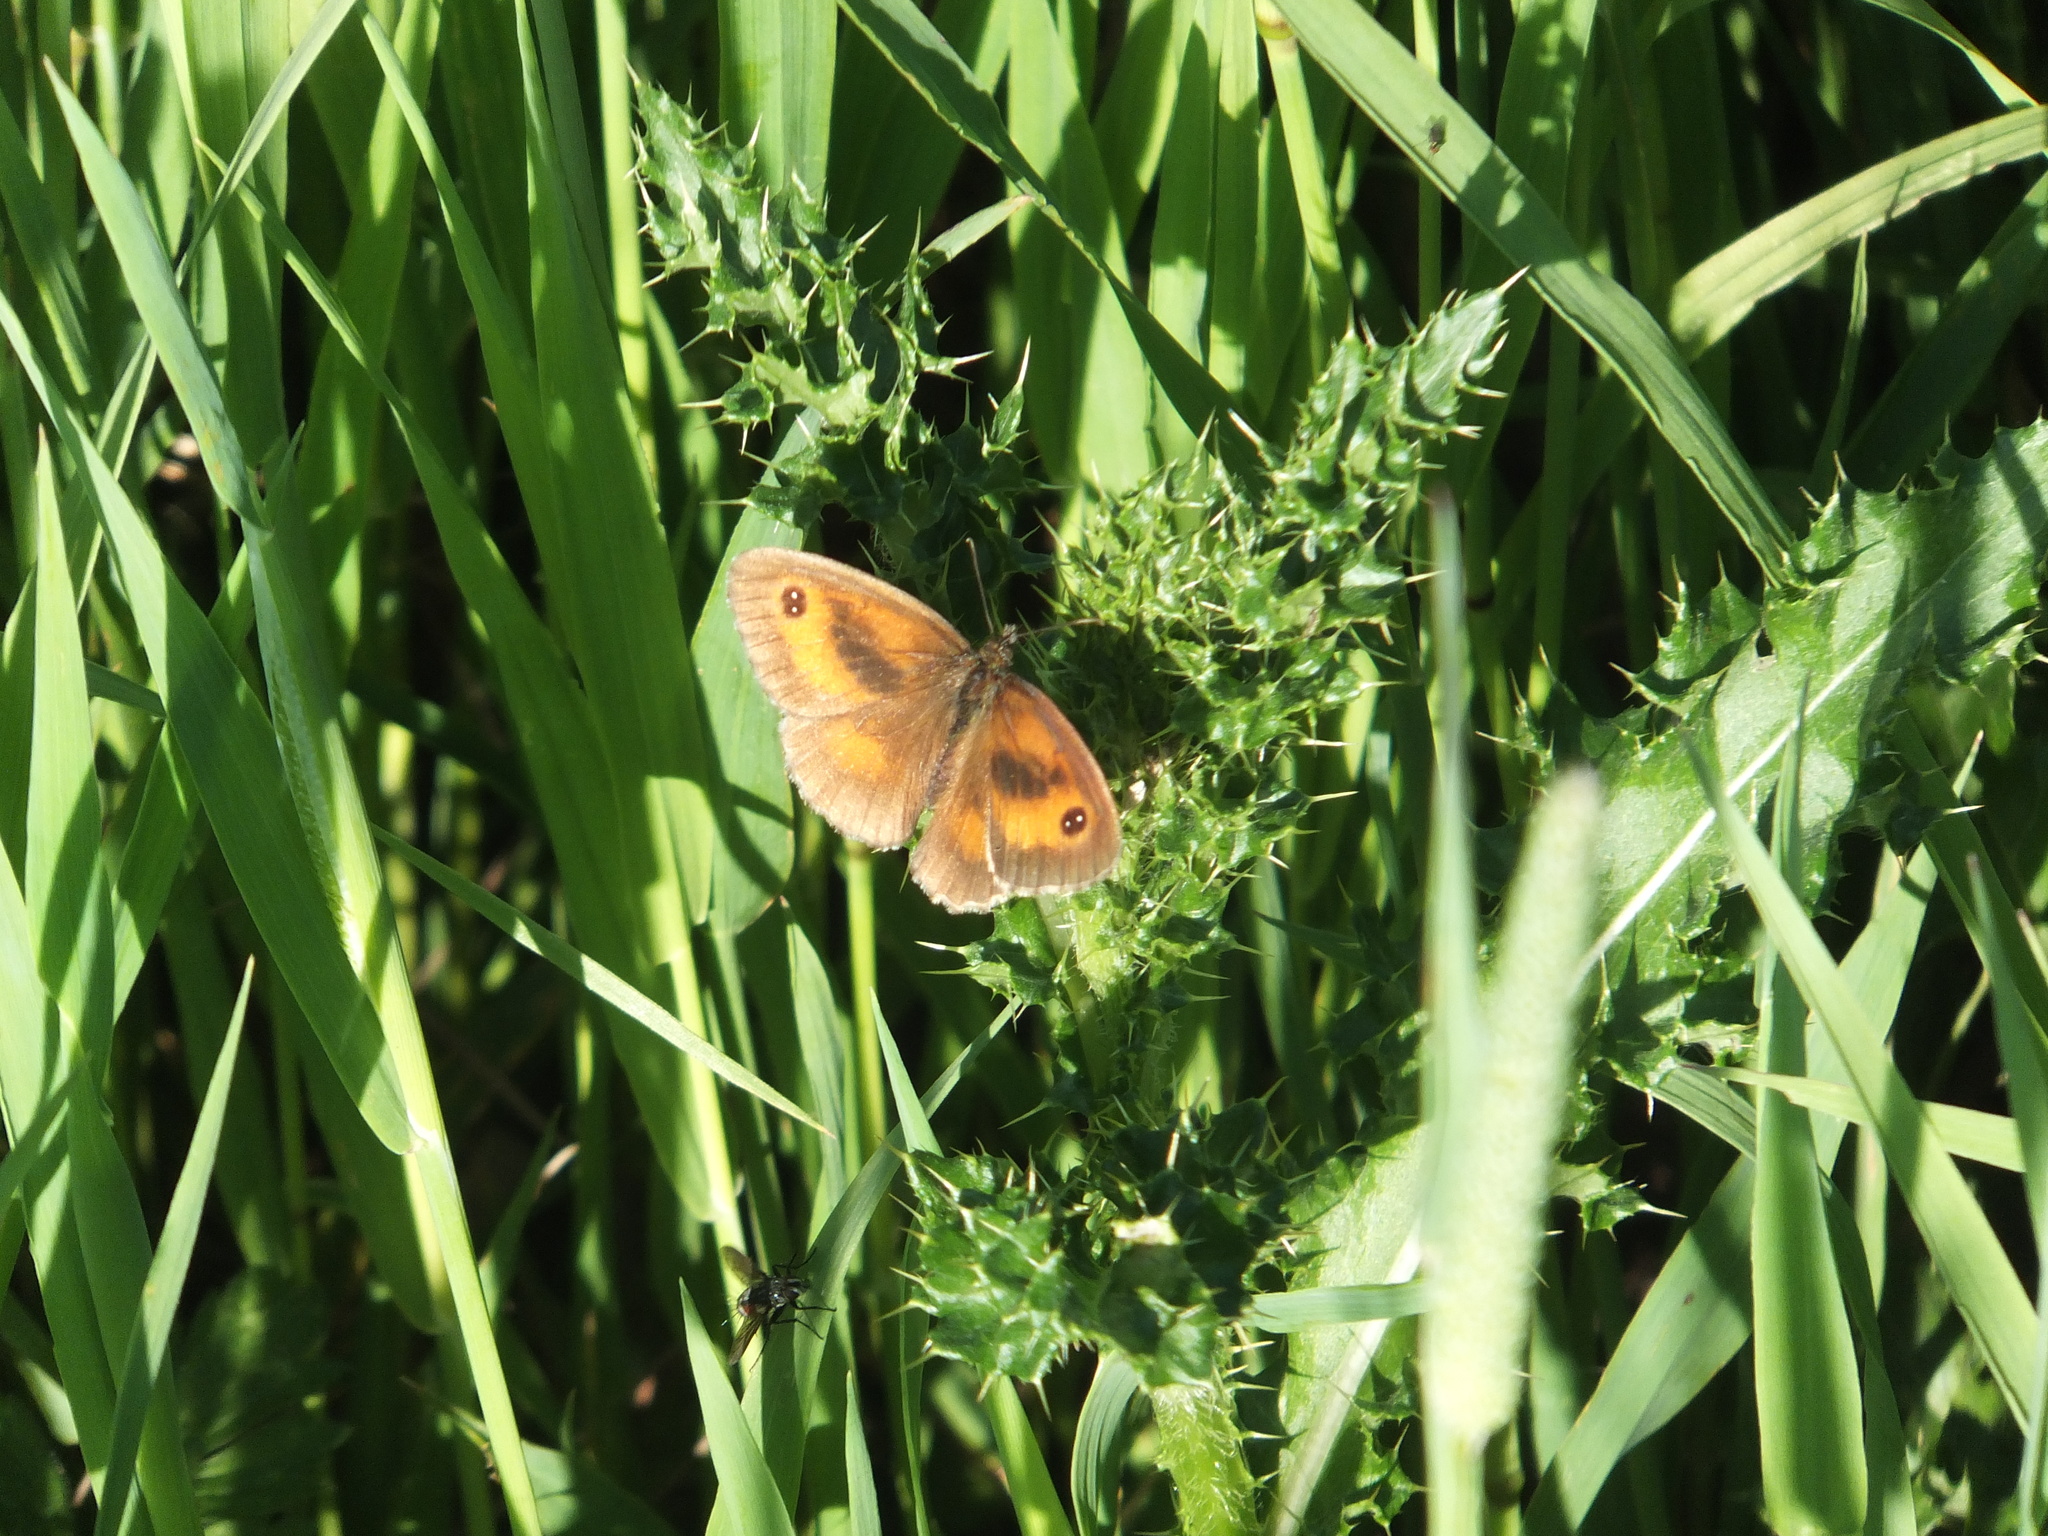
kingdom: Animalia
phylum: Arthropoda
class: Insecta
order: Lepidoptera
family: Nymphalidae
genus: Pyronia
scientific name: Pyronia tithonus
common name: Gatekeeper
